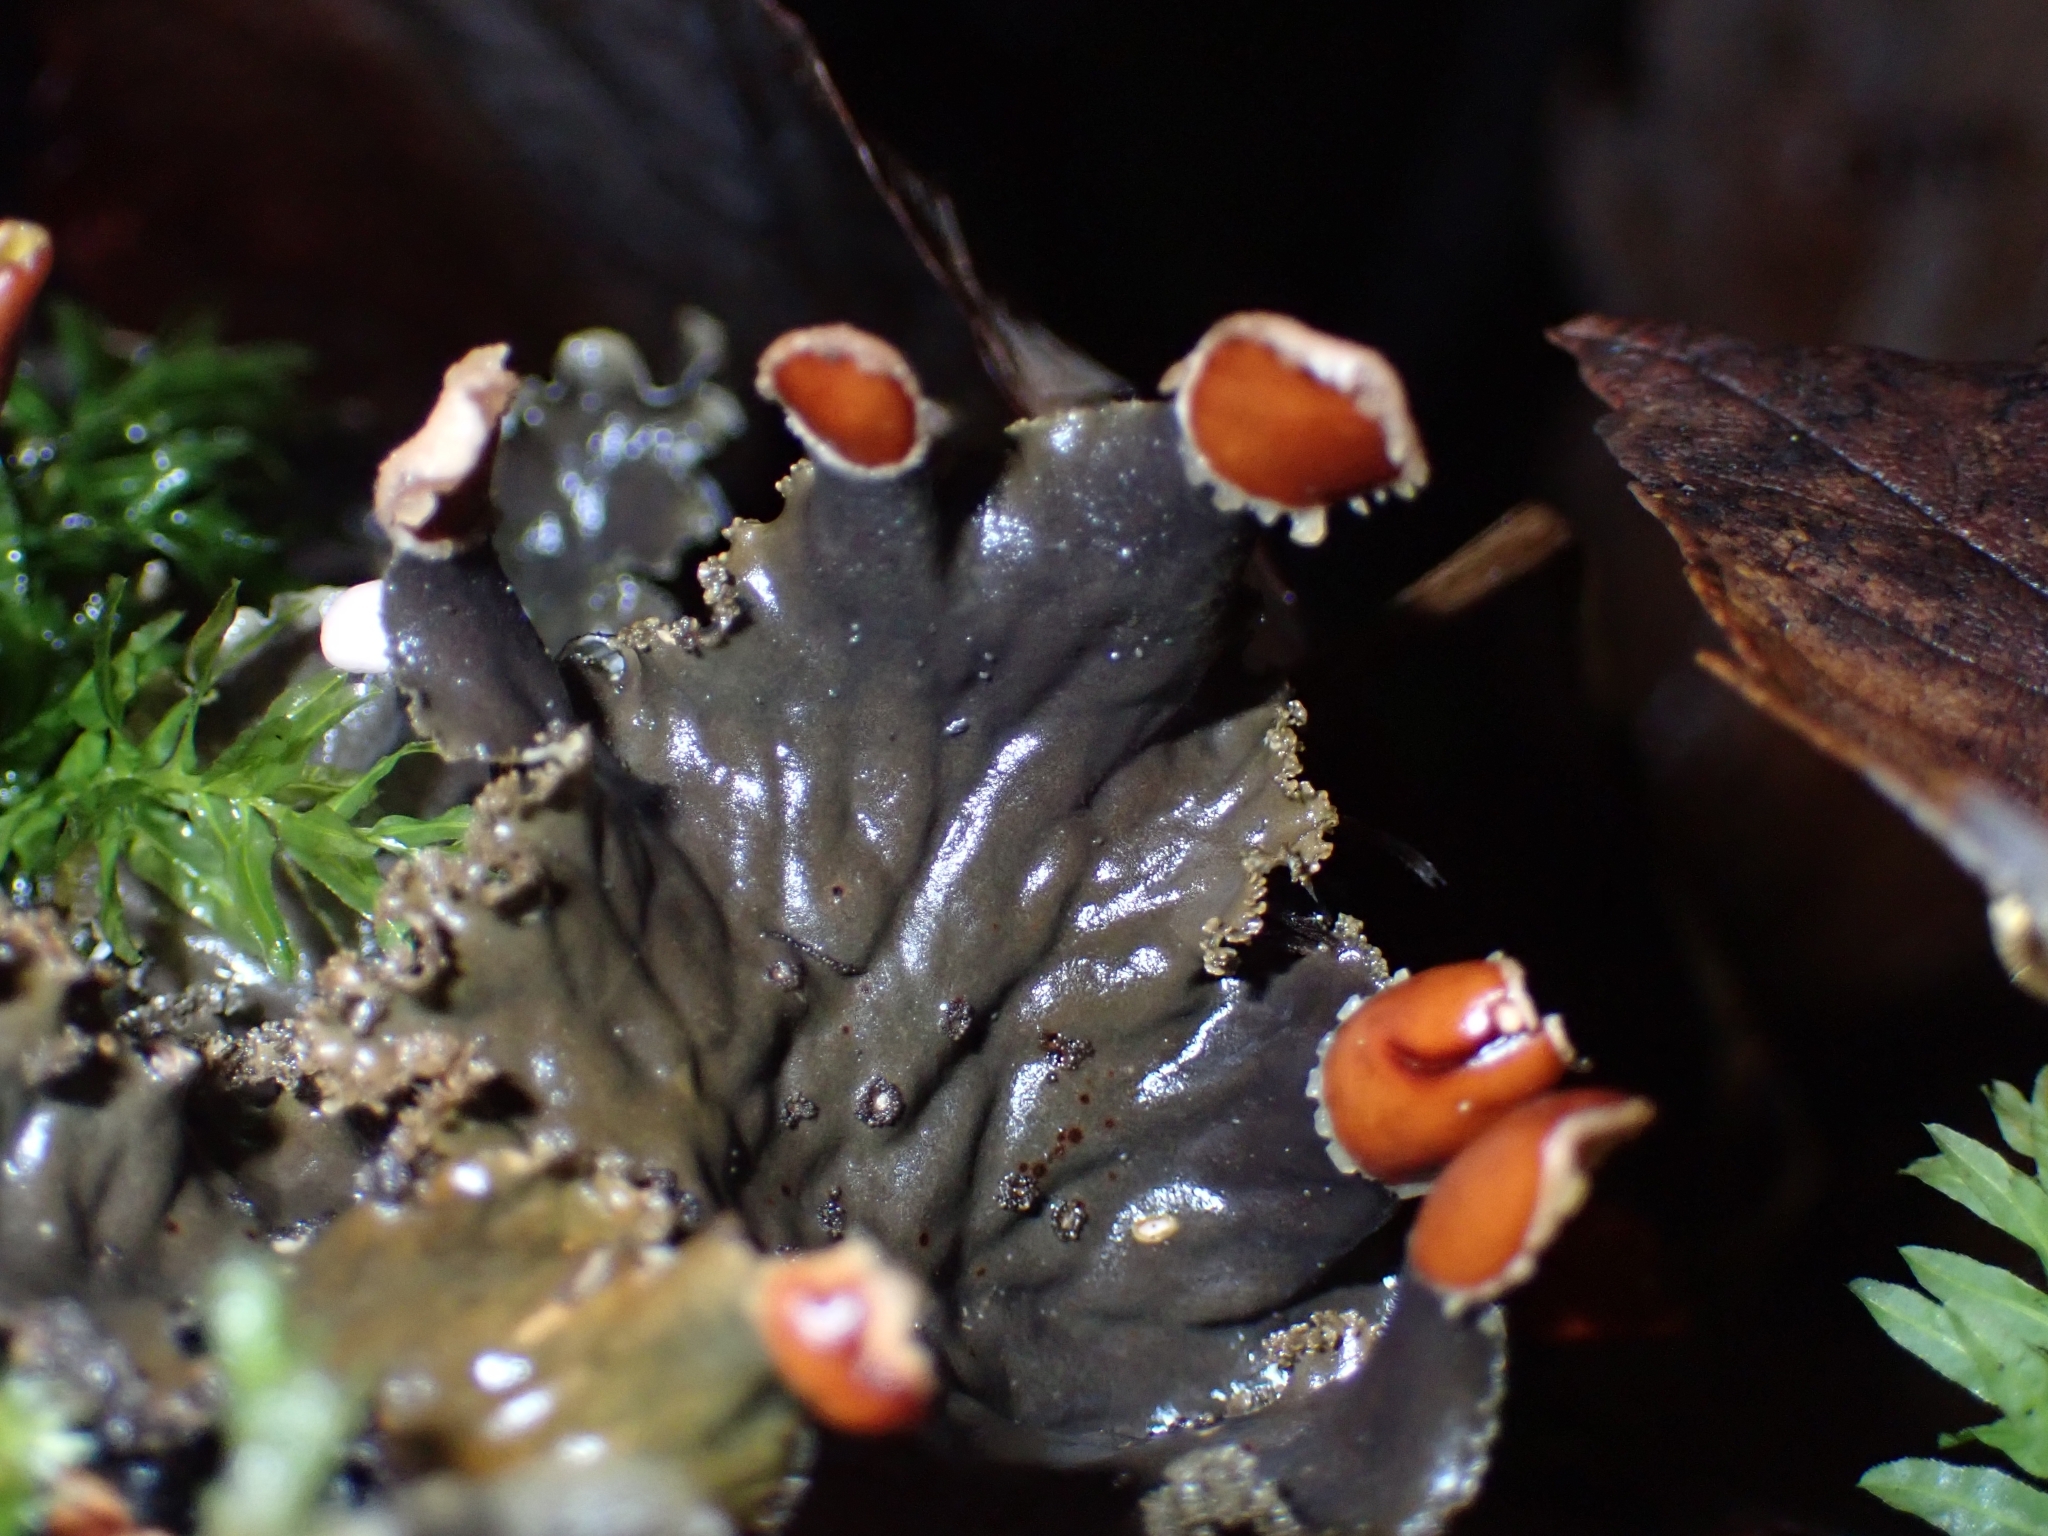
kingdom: Fungi
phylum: Ascomycota
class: Lecanoromycetes
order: Peltigerales
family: Peltigeraceae
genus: Peltigera
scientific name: Peltigera praetextata
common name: Scaly dog-lichen
